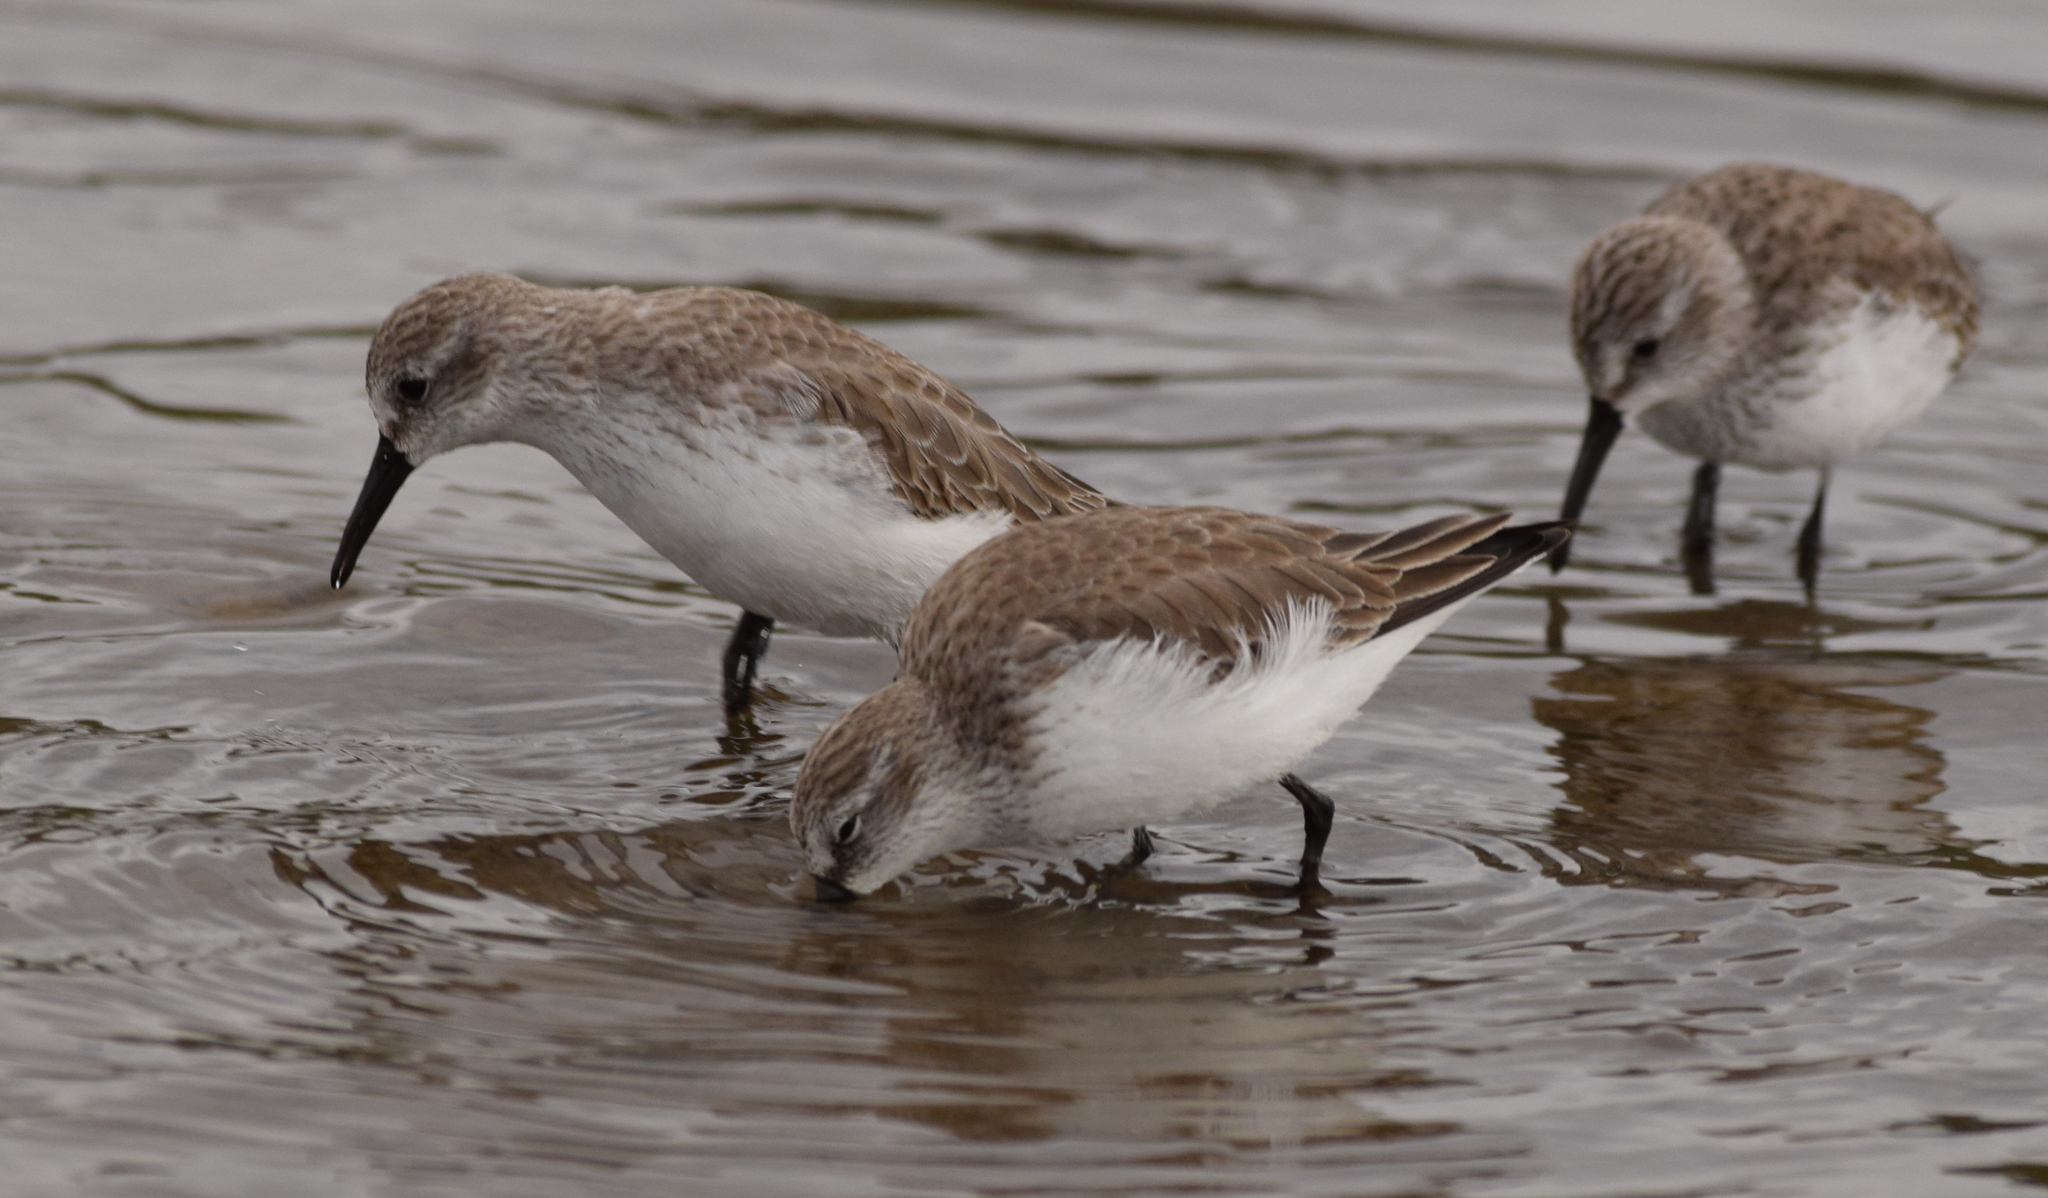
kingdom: Animalia
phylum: Chordata
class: Aves
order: Charadriiformes
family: Scolopacidae
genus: Calidris
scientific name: Calidris mauri
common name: Western sandpiper
